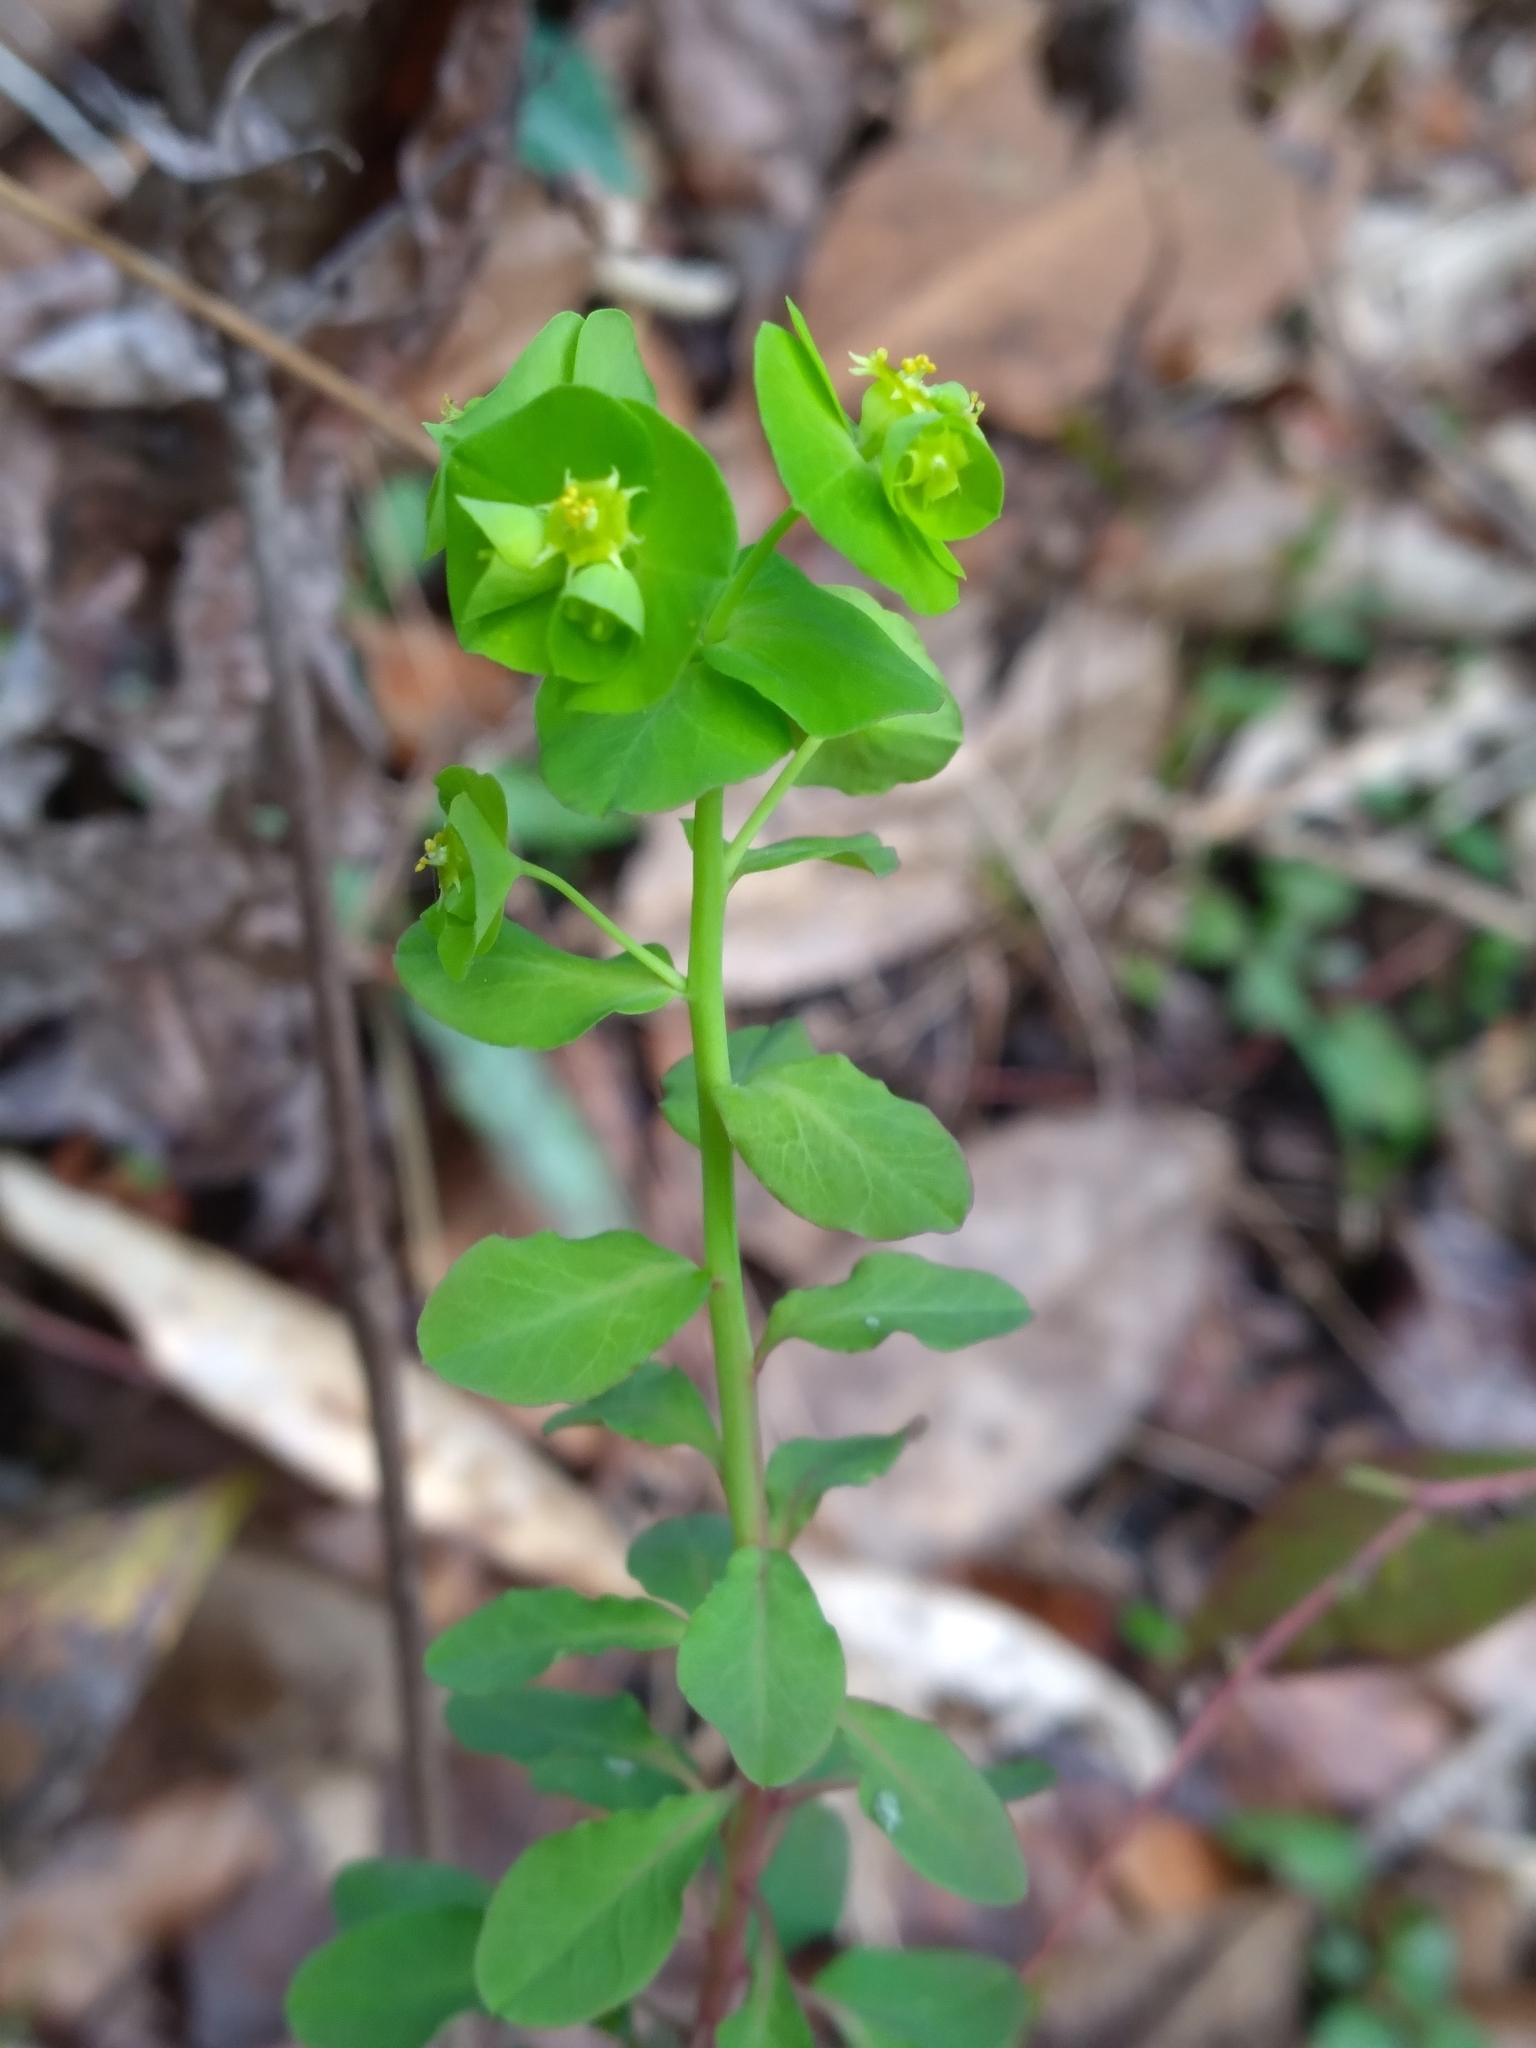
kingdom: Plantae
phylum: Tracheophyta
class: Magnoliopsida
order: Malpighiales
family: Euphorbiaceae
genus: Euphorbia
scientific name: Euphorbia commutata
